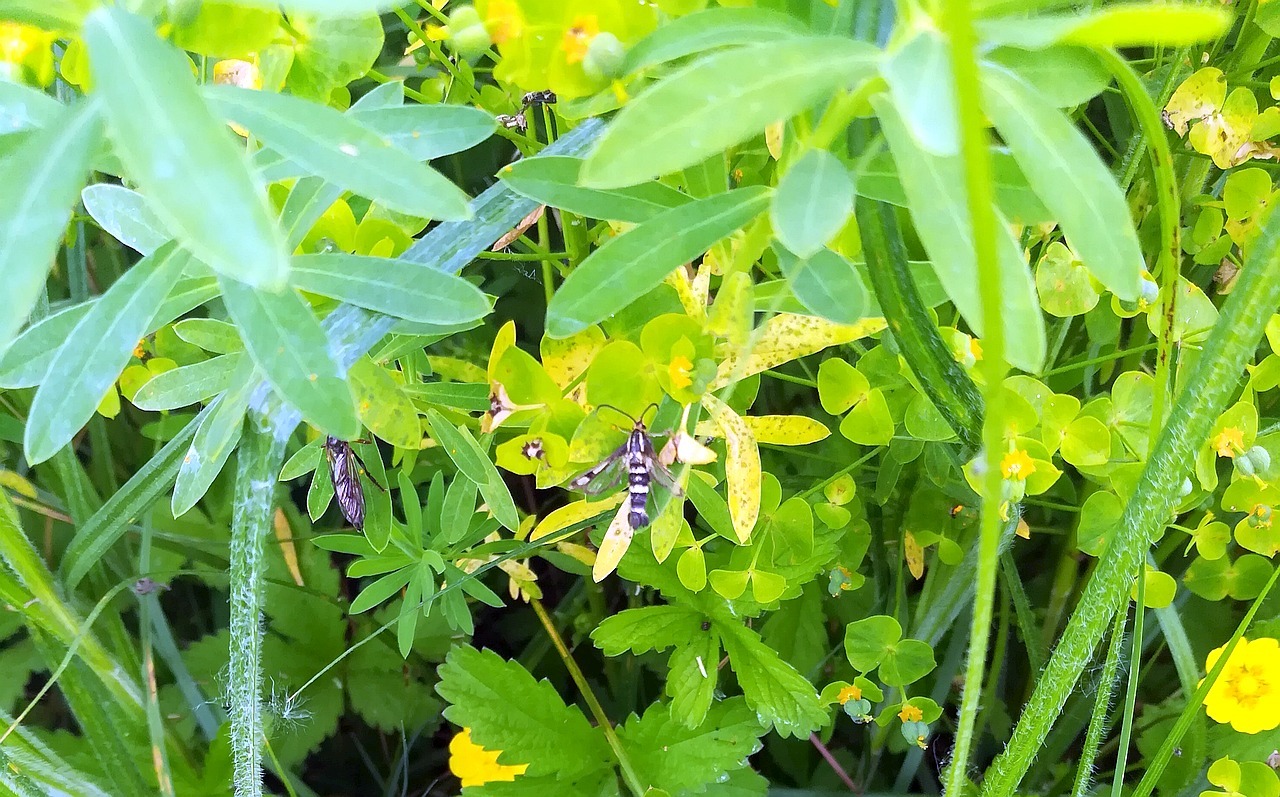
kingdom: Animalia
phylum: Arthropoda
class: Insecta
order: Lepidoptera
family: Sesiidae
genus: Chamaesphecia
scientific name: Chamaesphecia tenthrediniformis
